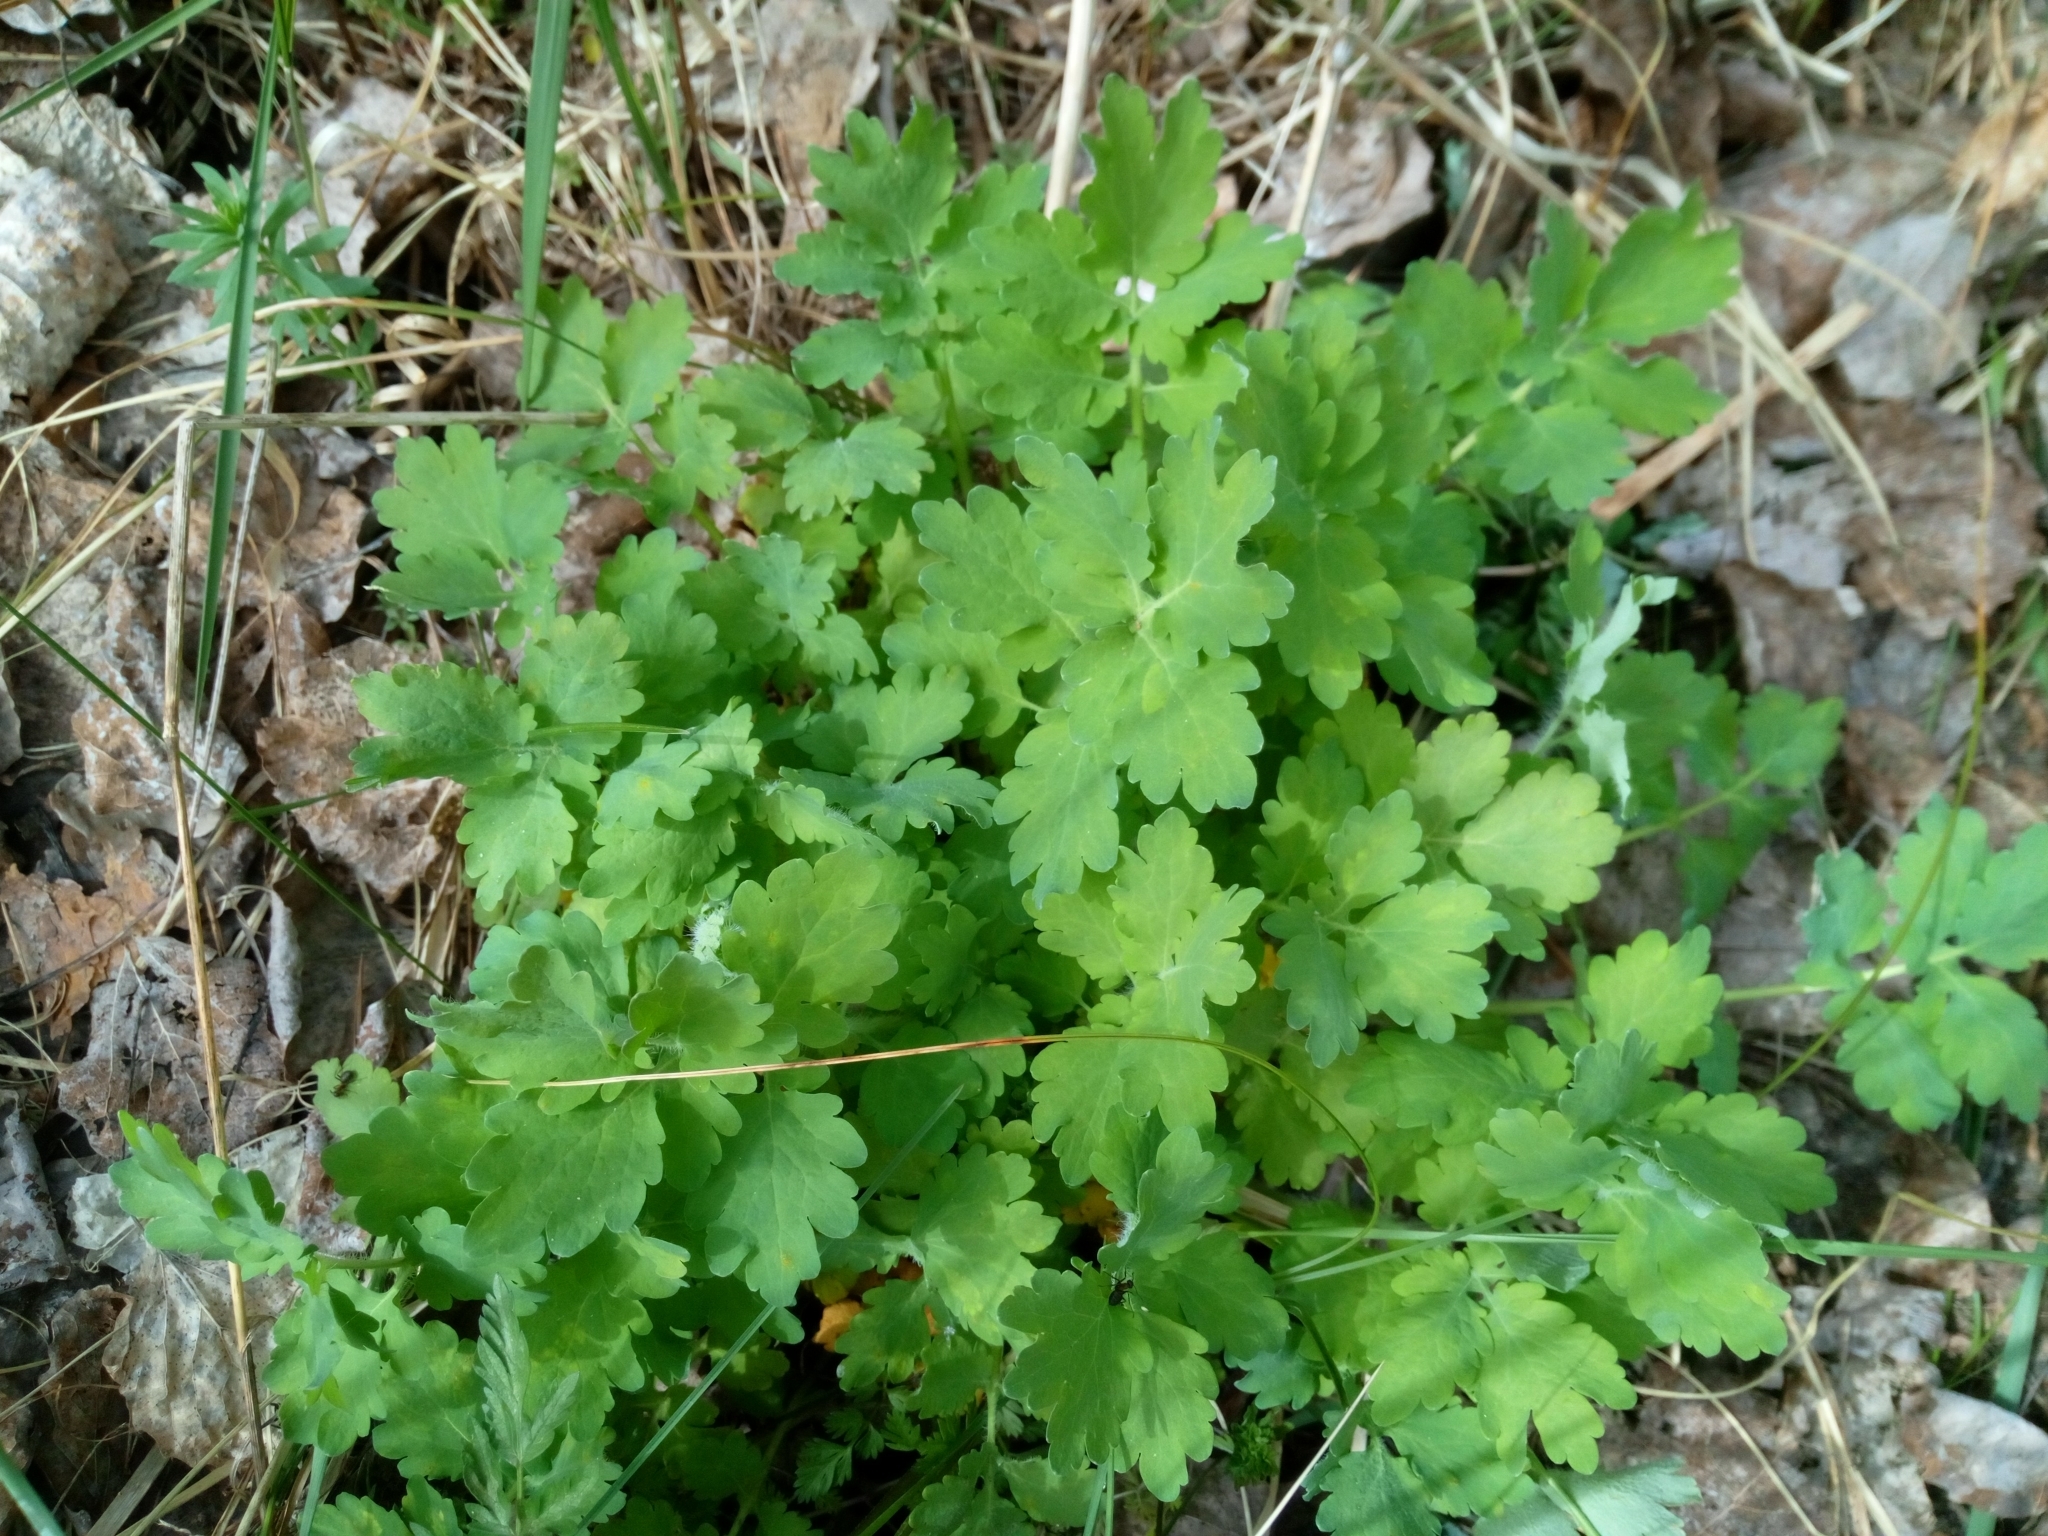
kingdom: Plantae
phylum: Tracheophyta
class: Magnoliopsida
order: Ranunculales
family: Papaveraceae
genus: Chelidonium
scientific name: Chelidonium majus
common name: Greater celandine
